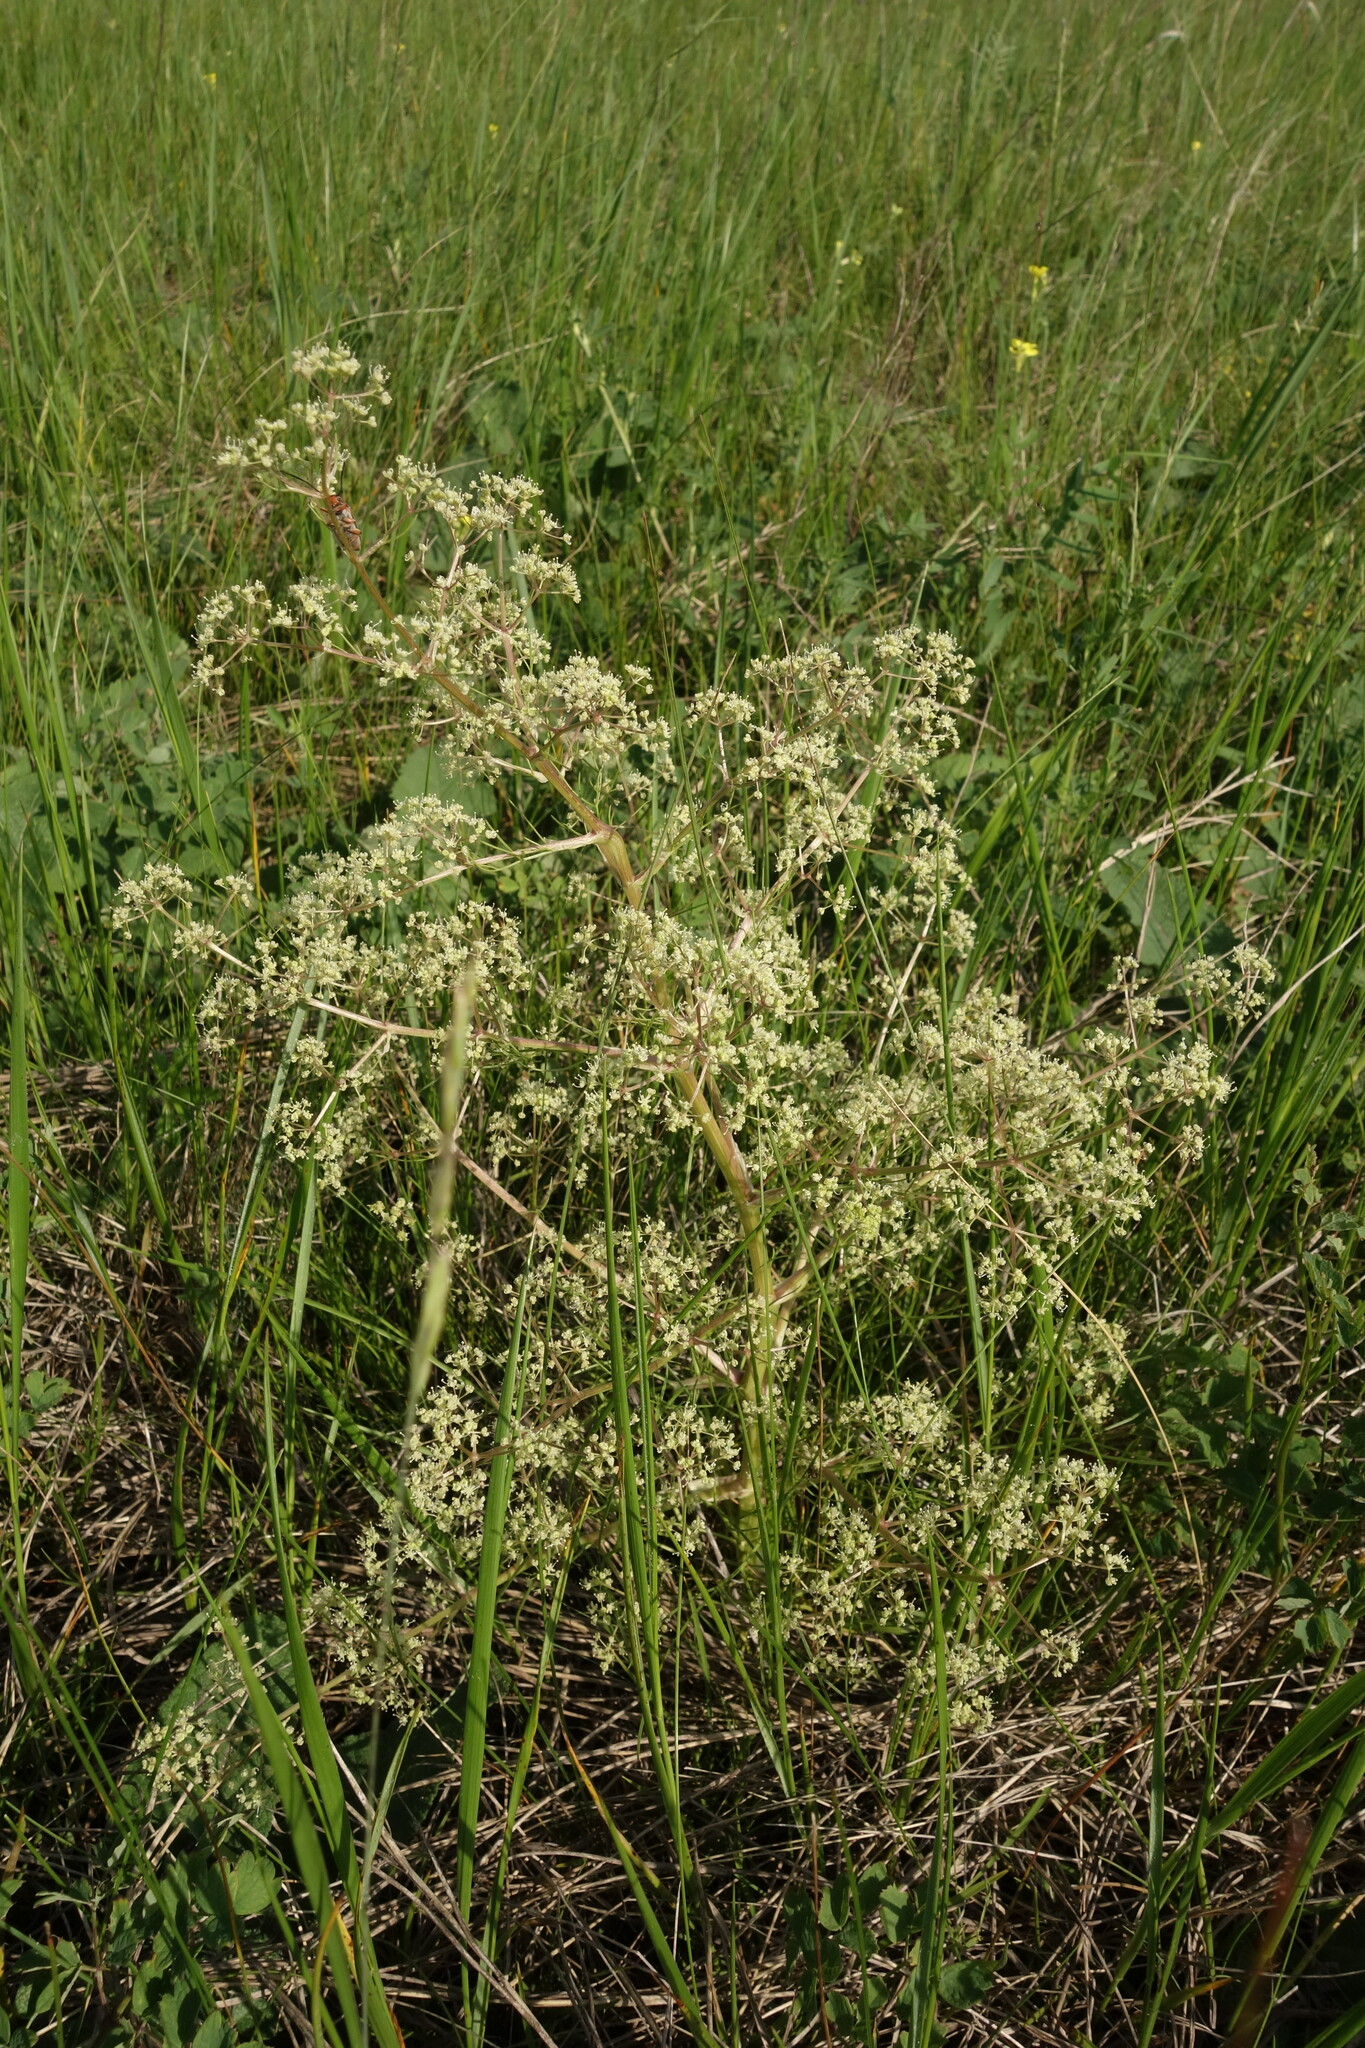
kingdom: Plantae
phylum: Tracheophyta
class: Magnoliopsida
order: Apiales
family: Apiaceae
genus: Trinia
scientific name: Trinia multicaulis
